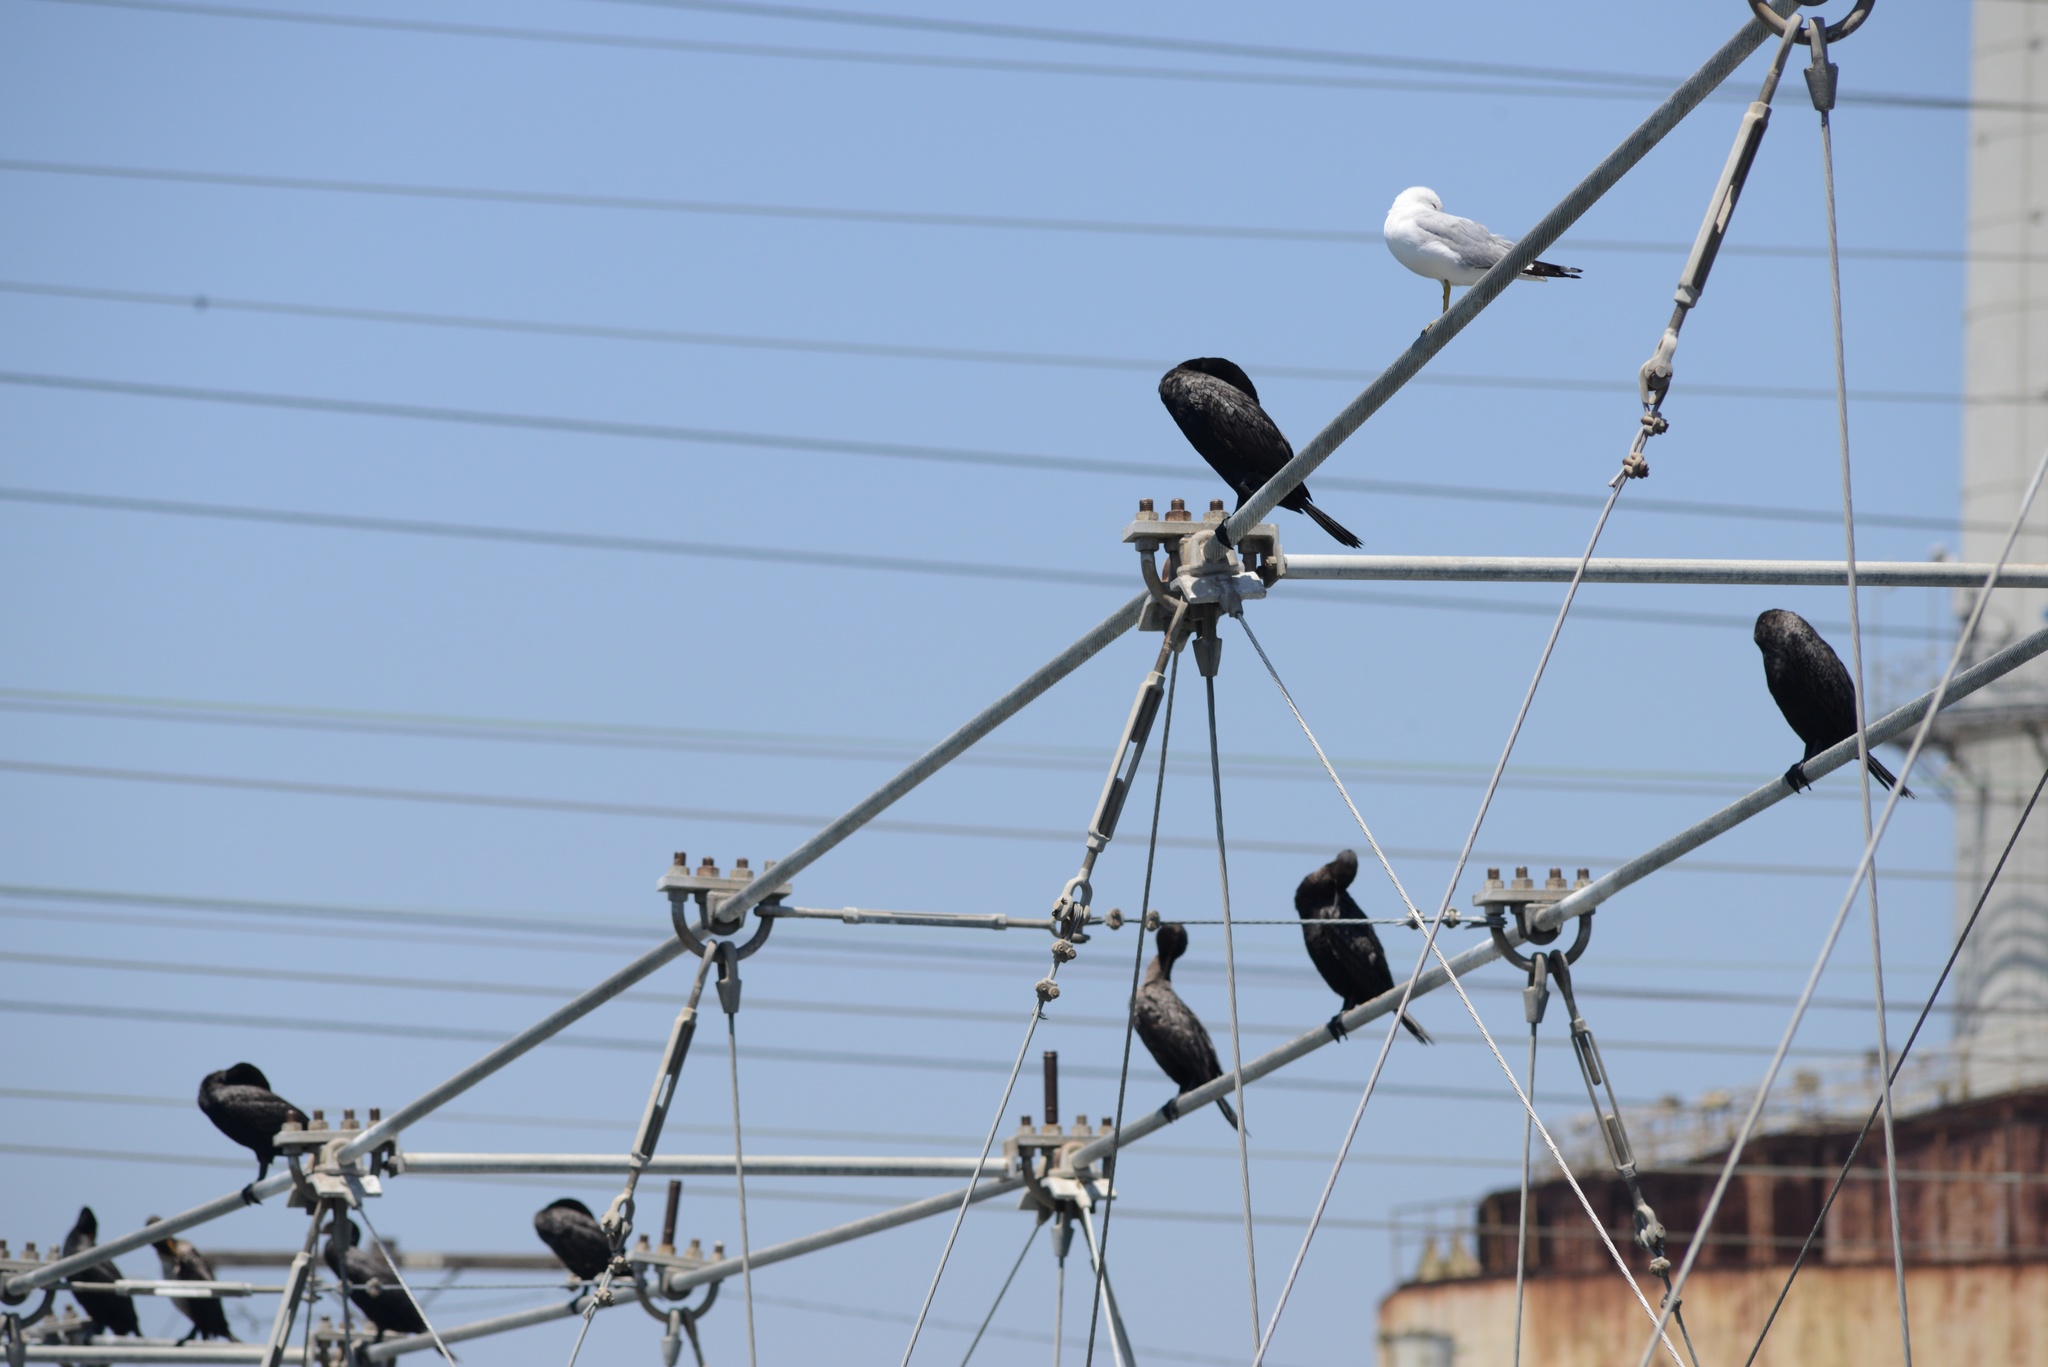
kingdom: Animalia
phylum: Chordata
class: Aves
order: Charadriiformes
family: Laridae
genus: Larus
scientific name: Larus delawarensis
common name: Ring-billed gull
